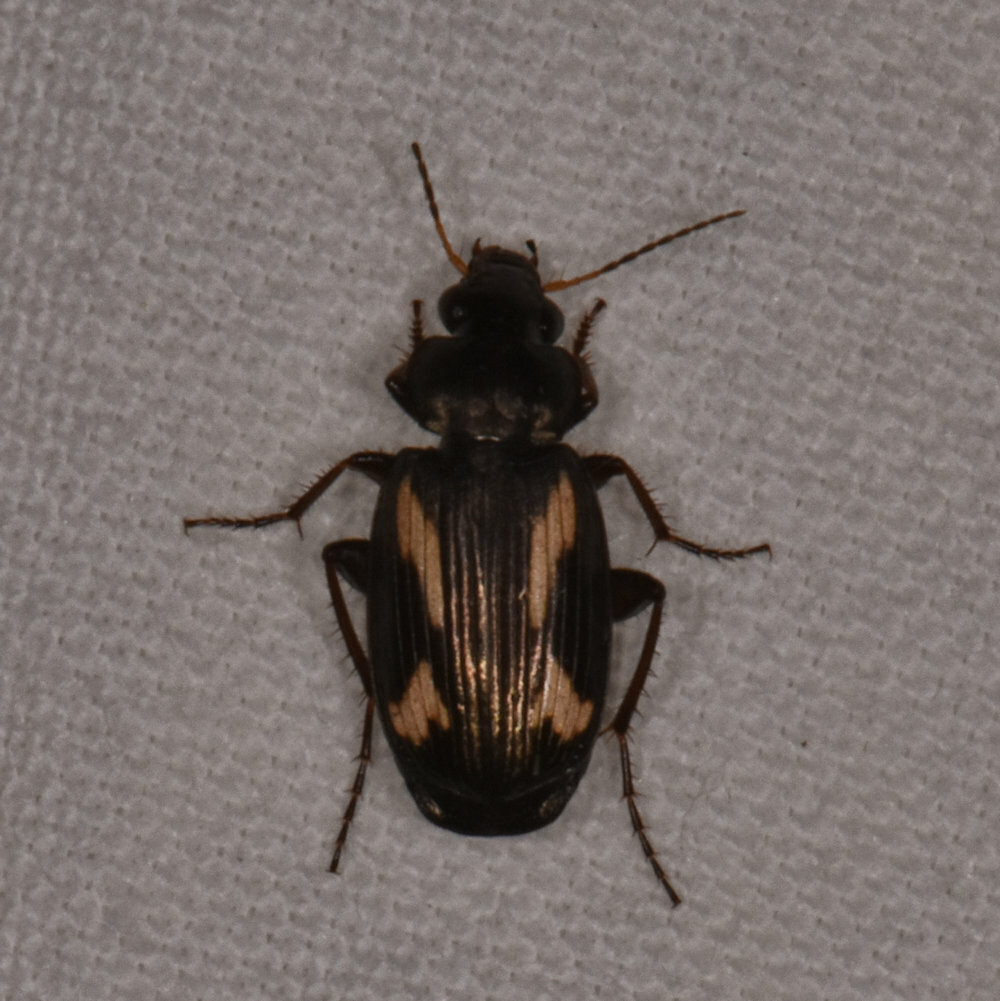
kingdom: Animalia
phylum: Arthropoda
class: Insecta
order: Coleoptera
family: Carabidae
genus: Tetragonoderus
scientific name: Tetragonoderus thunbergi
